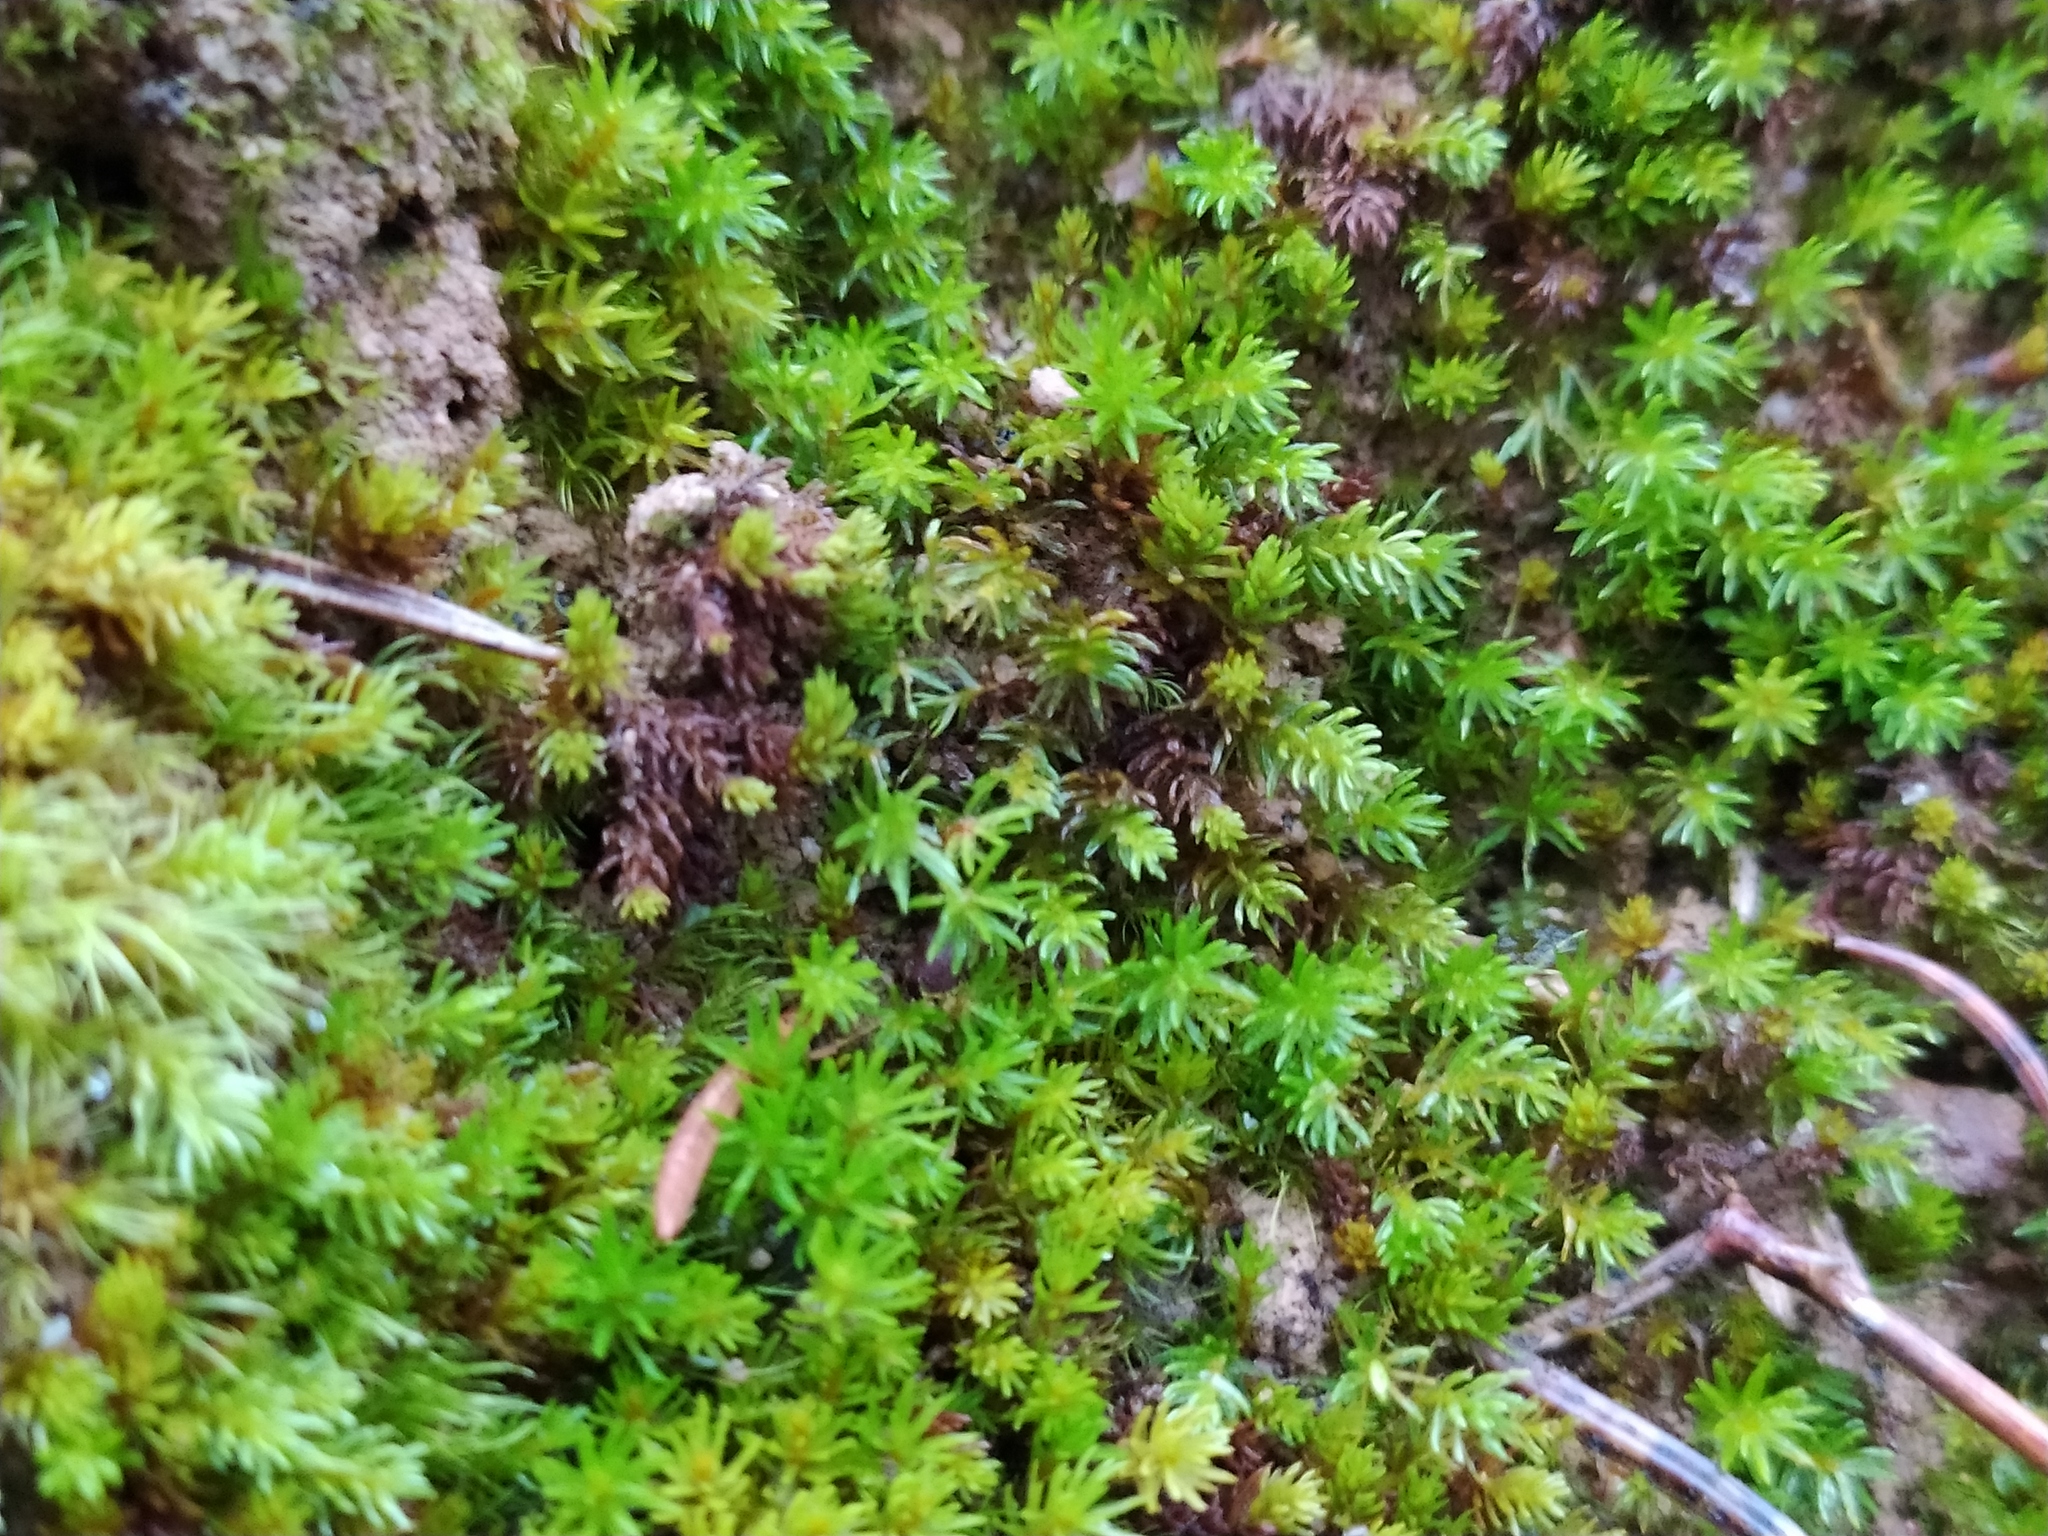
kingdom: Plantae
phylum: Bryophyta
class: Polytrichopsida
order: Polytrichales
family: Polytrichaceae
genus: Oligotrichum
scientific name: Oligotrichum hercynicum
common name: Hercynian hair moss
